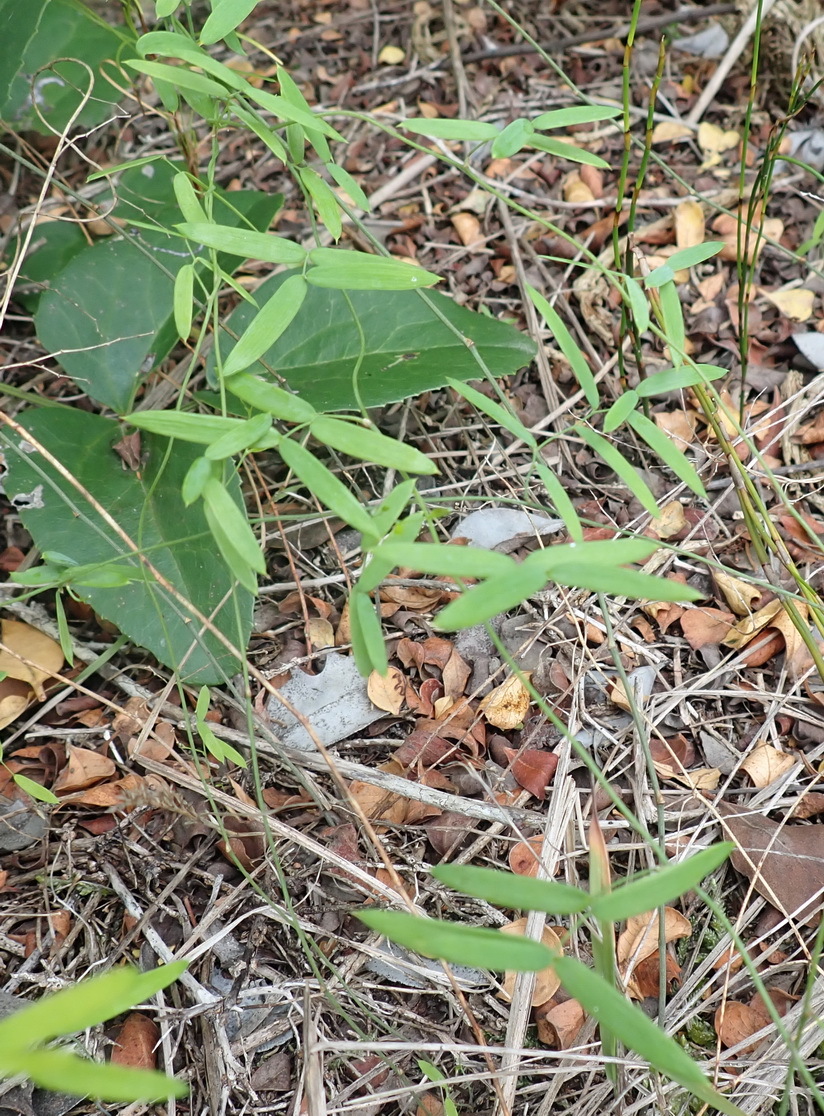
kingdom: Plantae
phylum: Tracheophyta
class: Liliopsida
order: Asparagales
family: Asparagaceae
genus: Asparagus
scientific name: Asparagus volubilis
